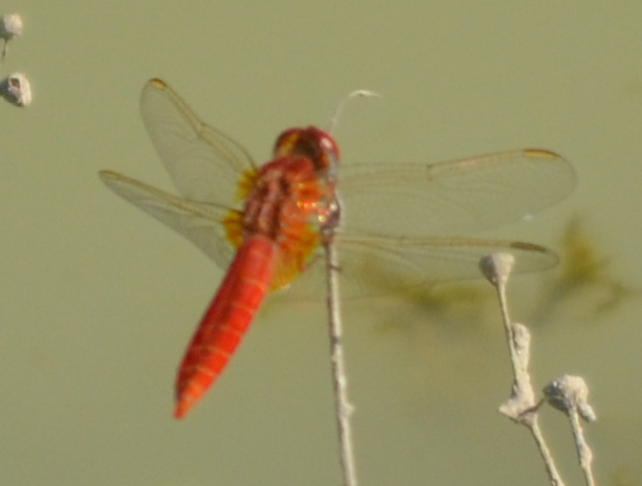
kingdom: Animalia
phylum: Arthropoda
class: Insecta
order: Odonata
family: Libellulidae
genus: Crocothemis
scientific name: Crocothemis erythraea
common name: Scarlet dragonfly
